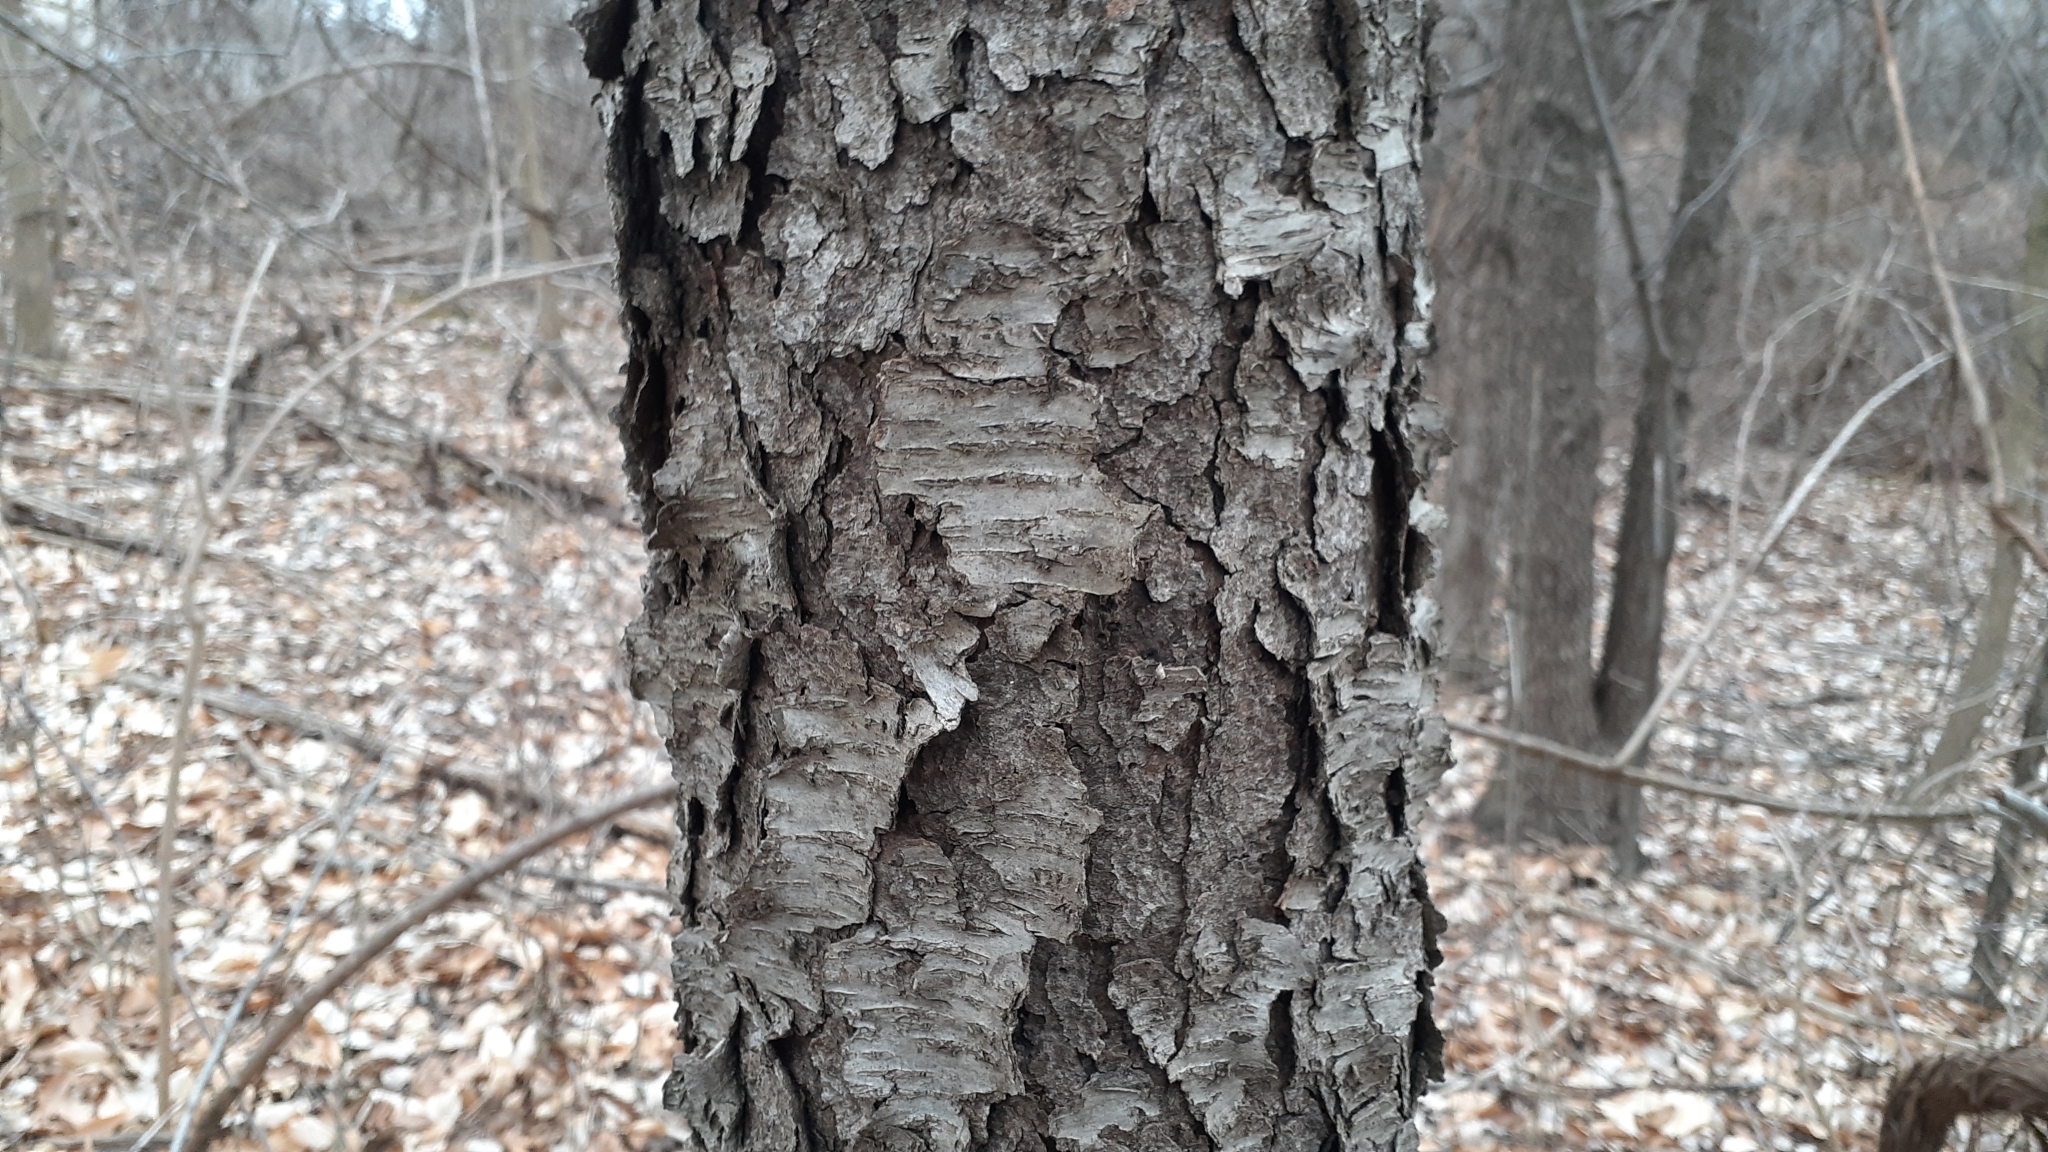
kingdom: Plantae
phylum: Tracheophyta
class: Magnoliopsida
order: Rosales
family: Rosaceae
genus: Prunus
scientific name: Prunus serotina
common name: Black cherry
